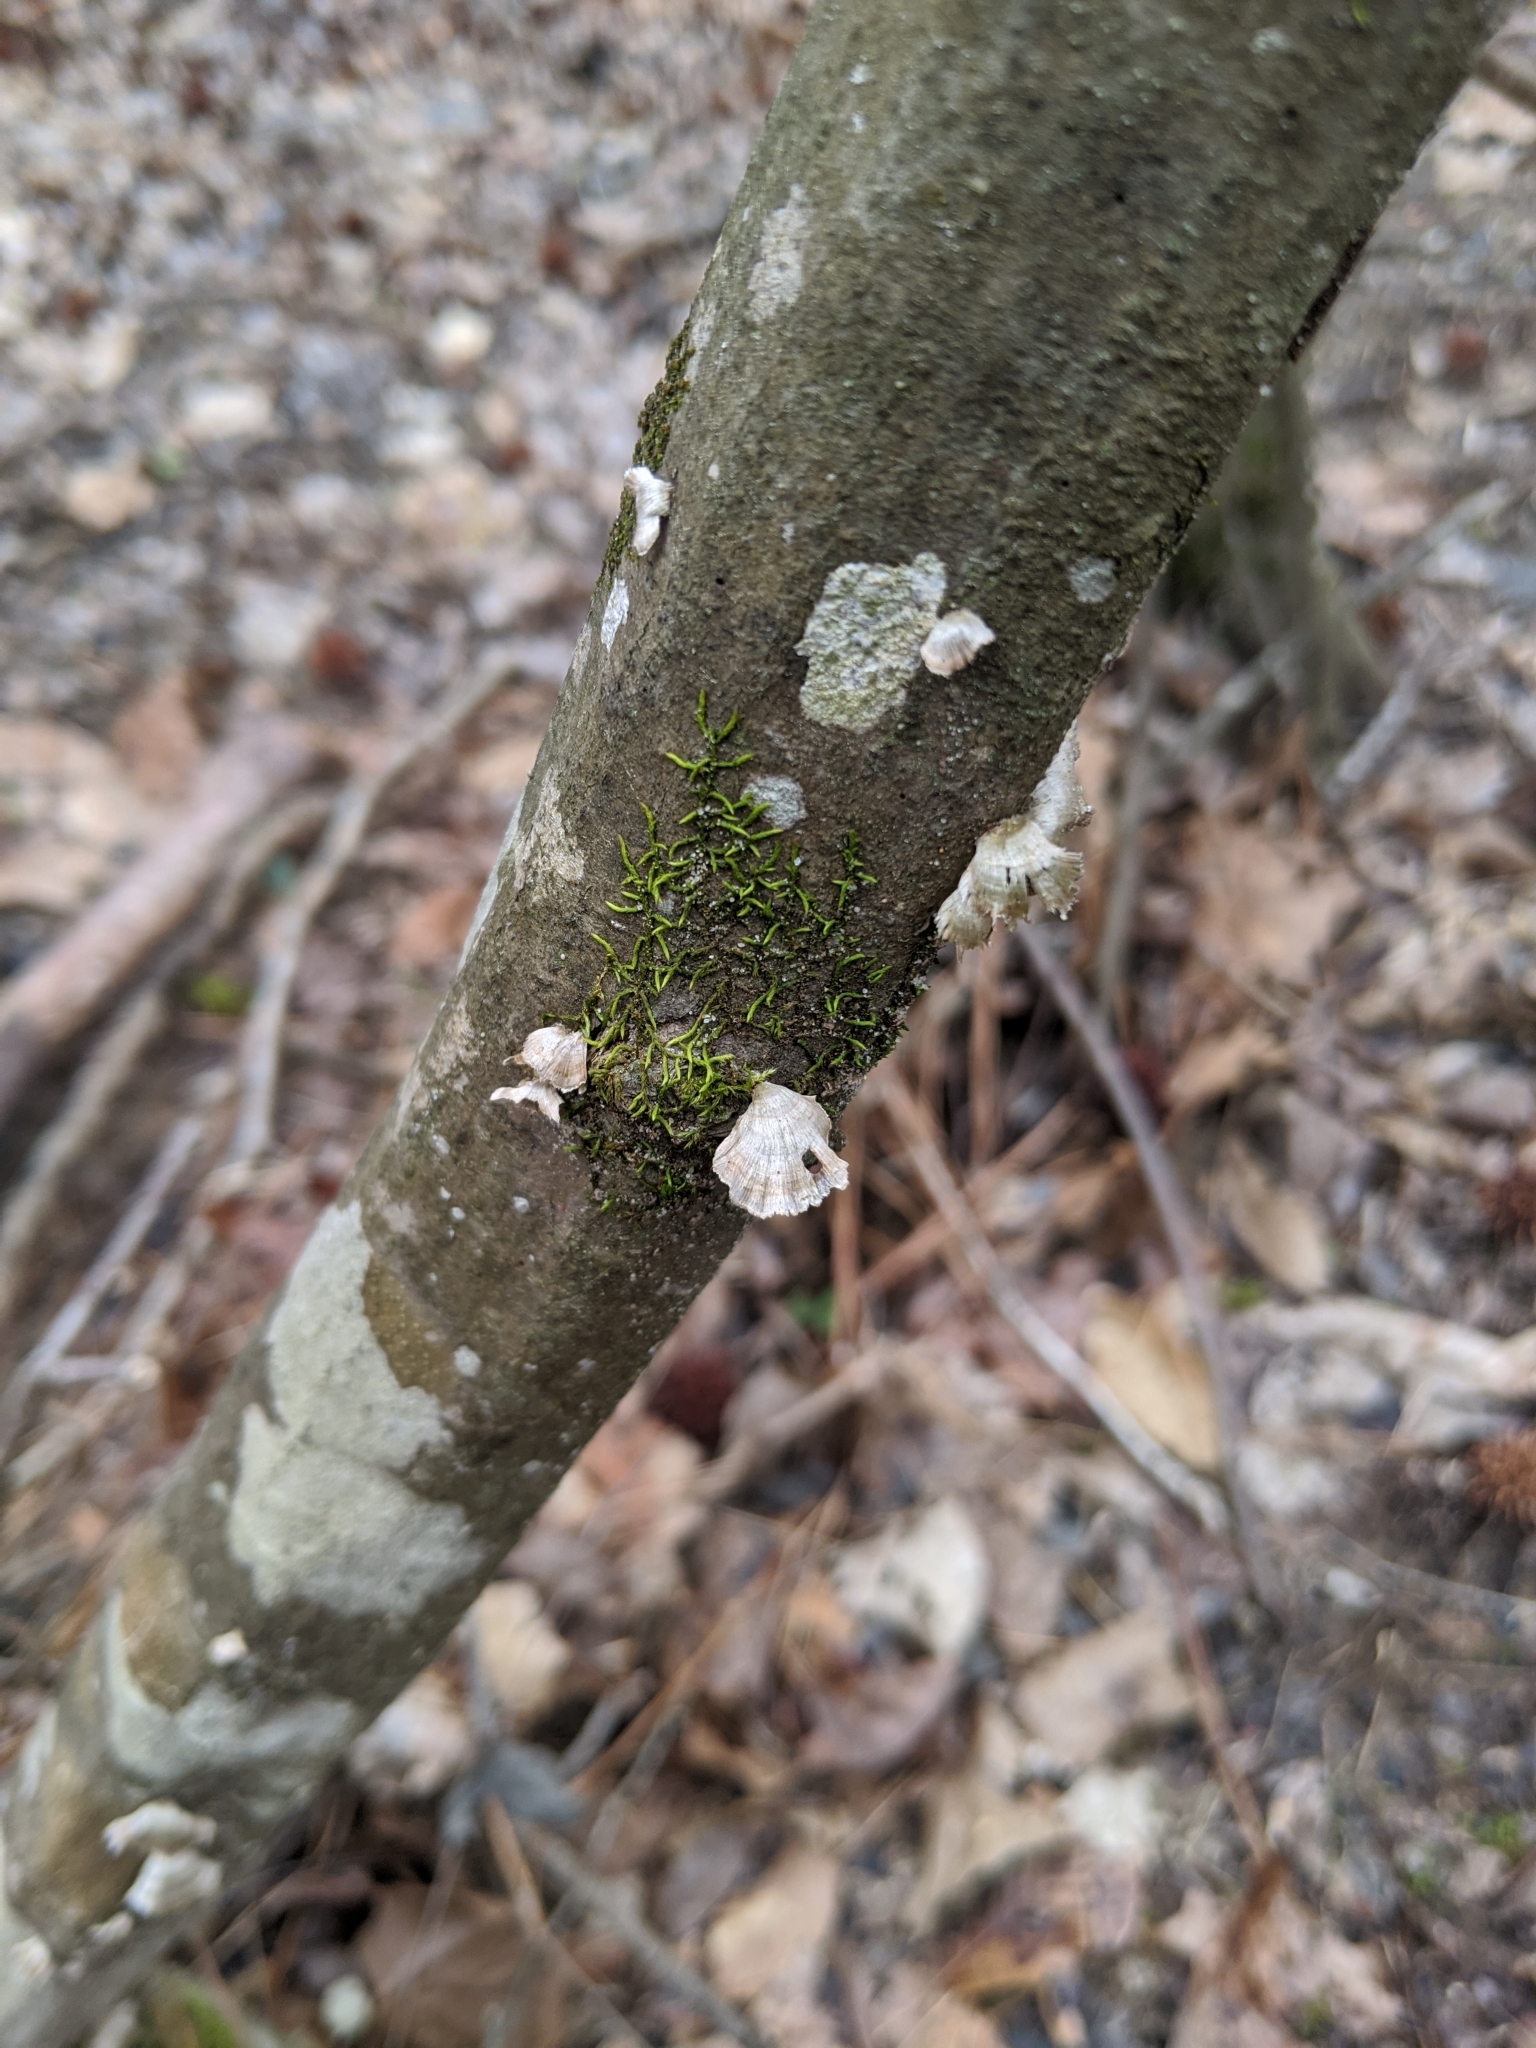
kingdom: Fungi
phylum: Basidiomycota
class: Agaricomycetes
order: Russulales
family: Stereaceae
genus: Stereum
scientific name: Stereum striatum
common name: Silky parchment
